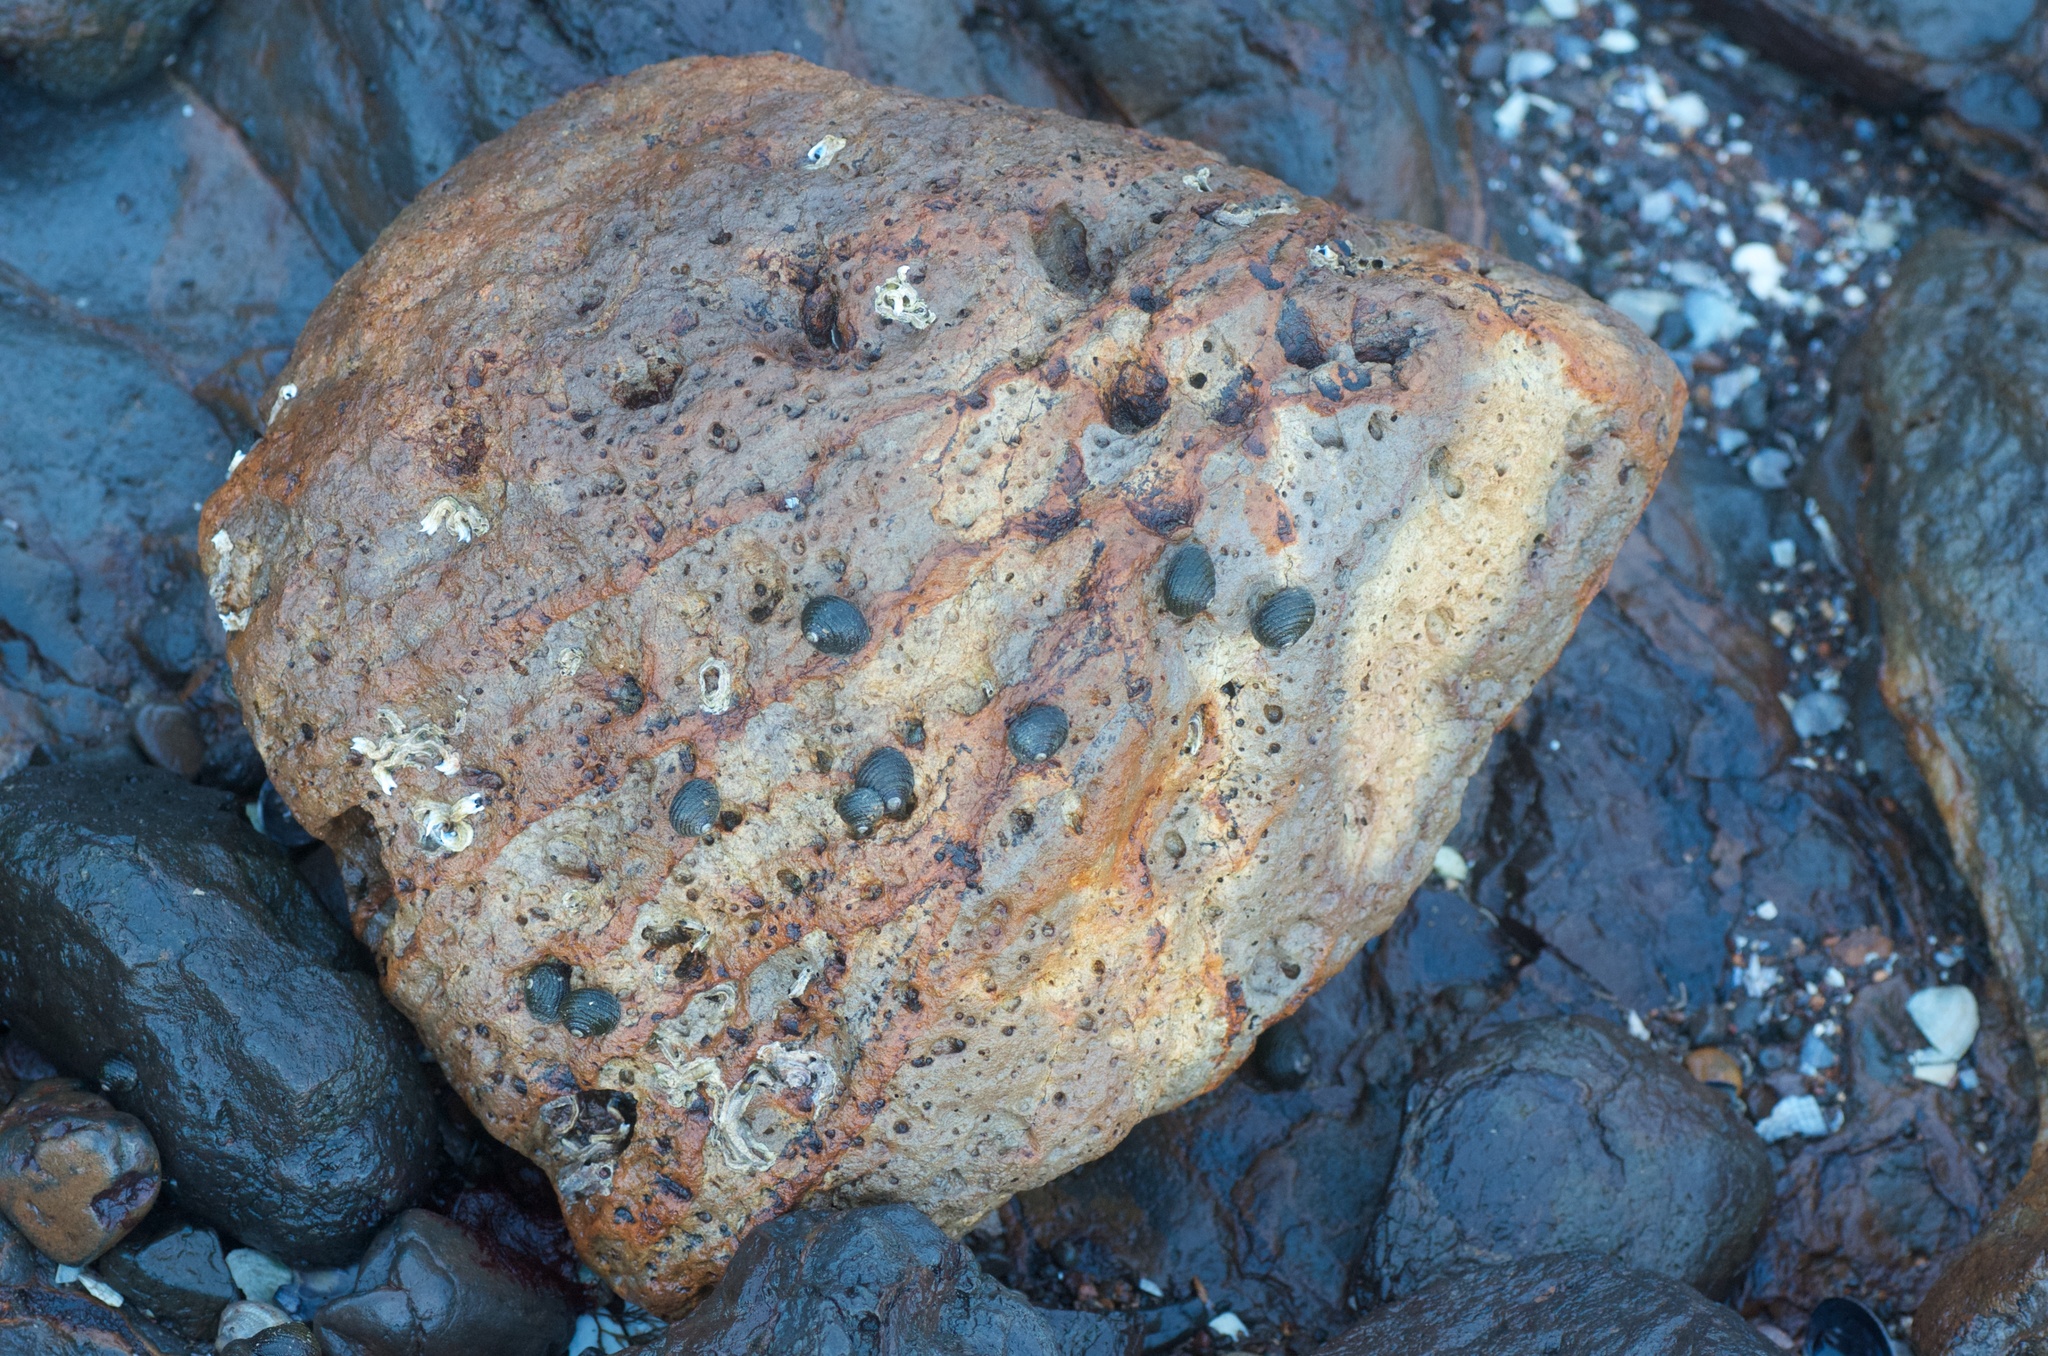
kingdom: Animalia
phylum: Mollusca
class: Gastropoda
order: Trochida
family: Trochidae
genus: Diloma
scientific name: Diloma aethiops
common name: Scorched monodont
